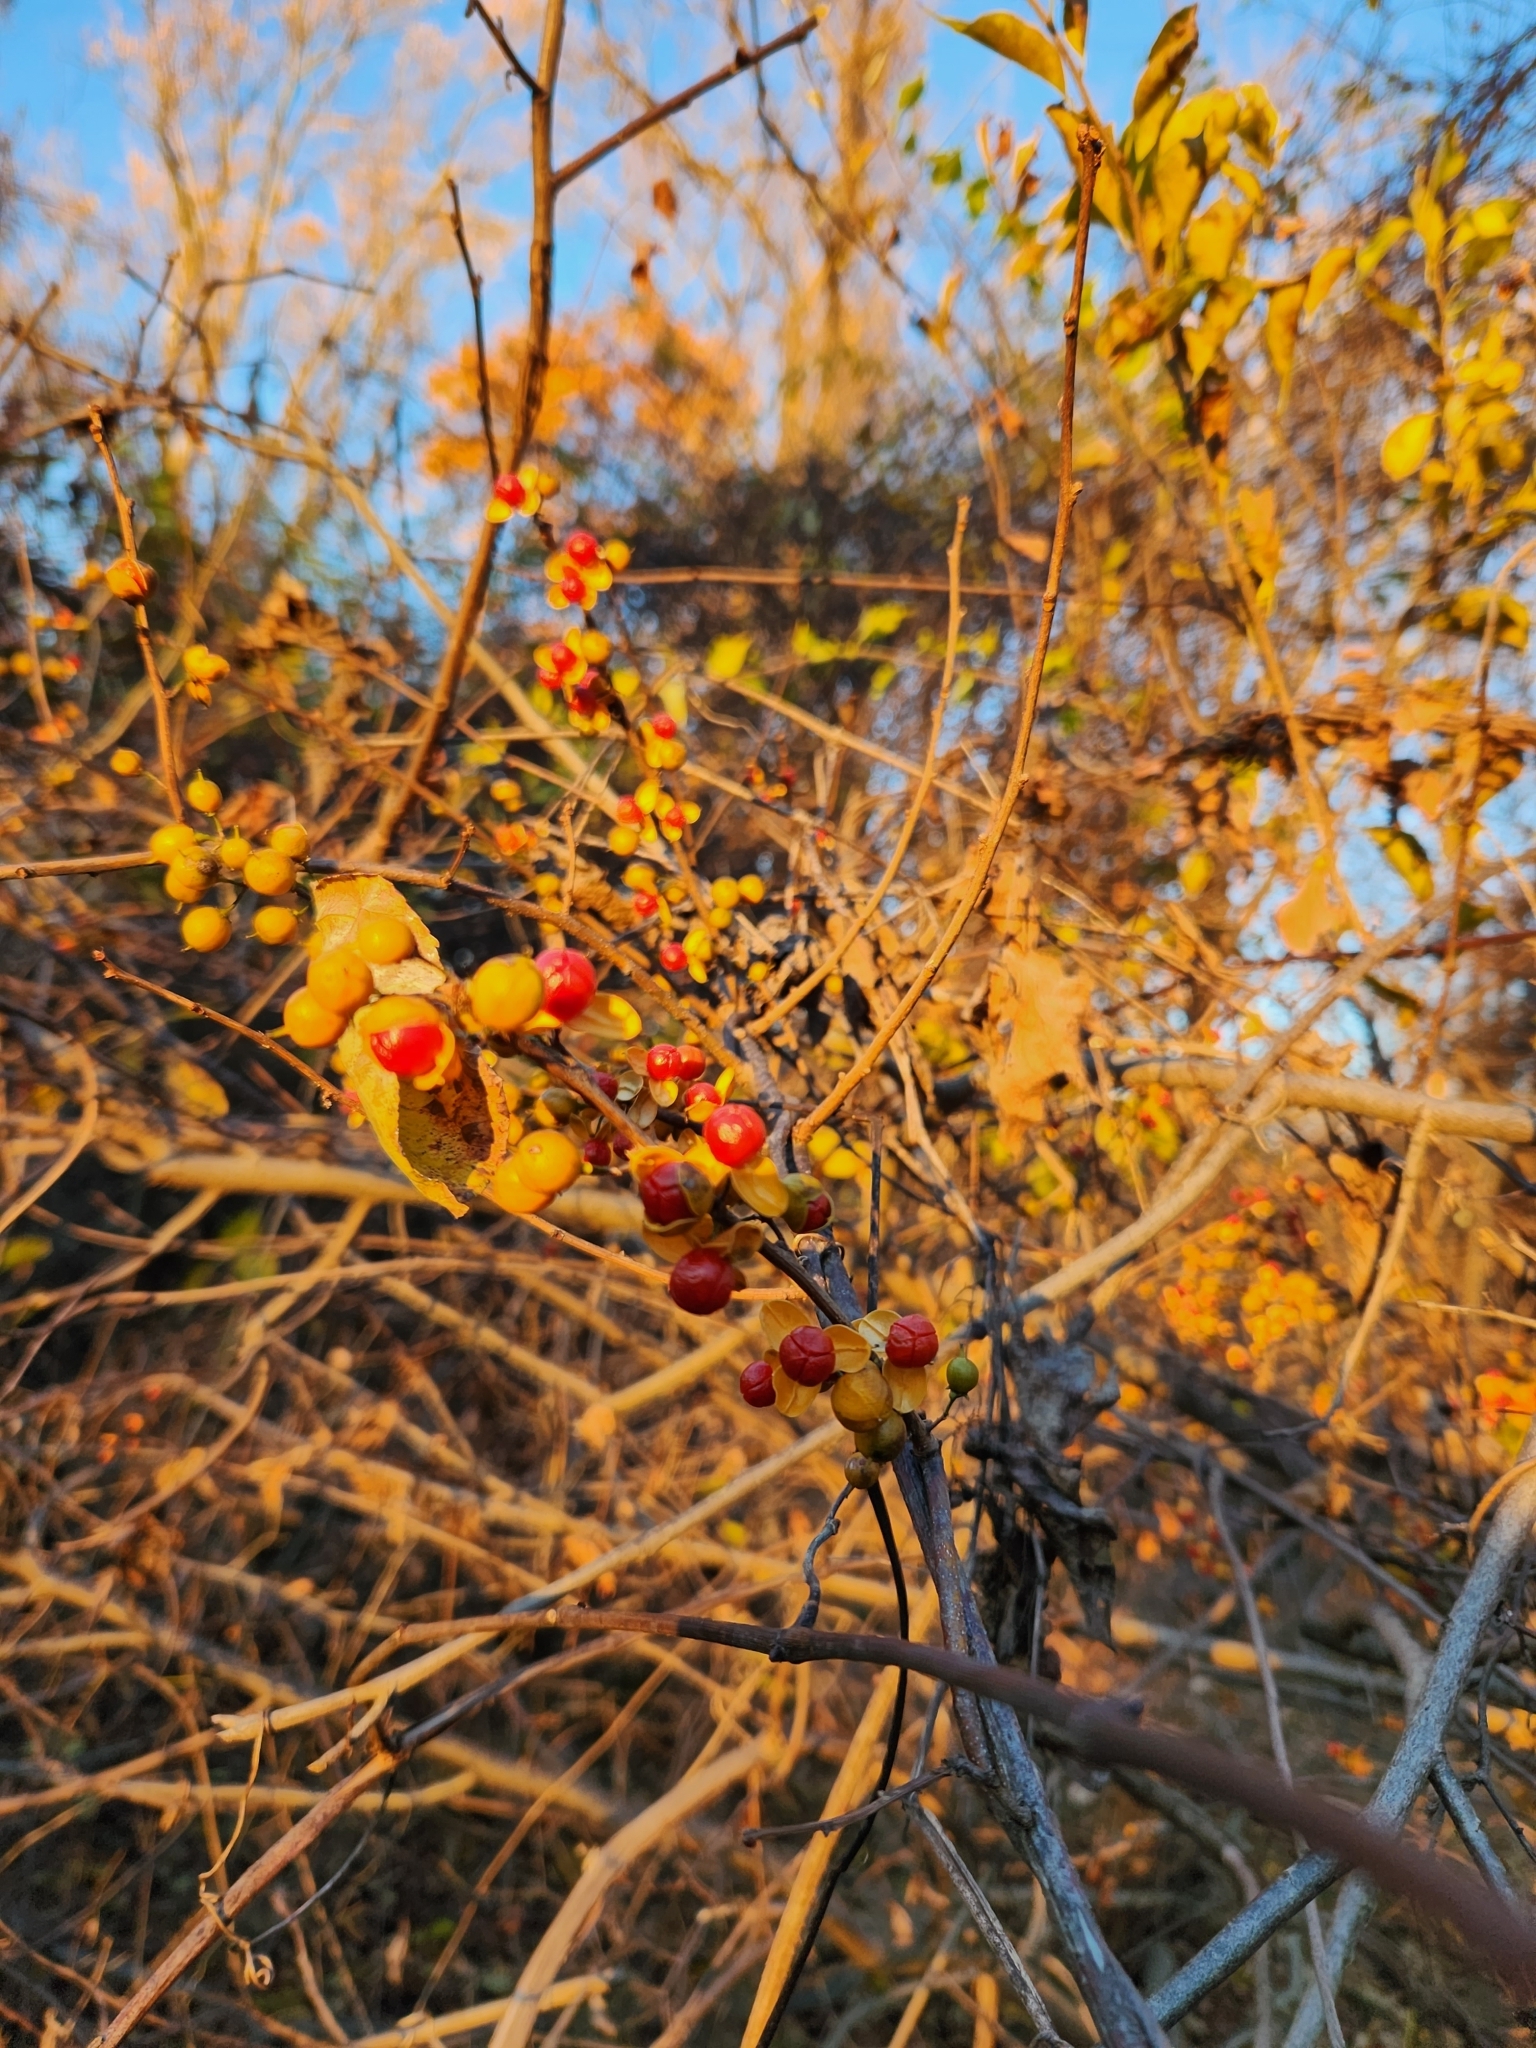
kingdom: Plantae
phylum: Tracheophyta
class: Magnoliopsida
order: Celastrales
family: Celastraceae
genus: Celastrus
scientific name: Celastrus orbiculatus
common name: Oriental bittersweet
